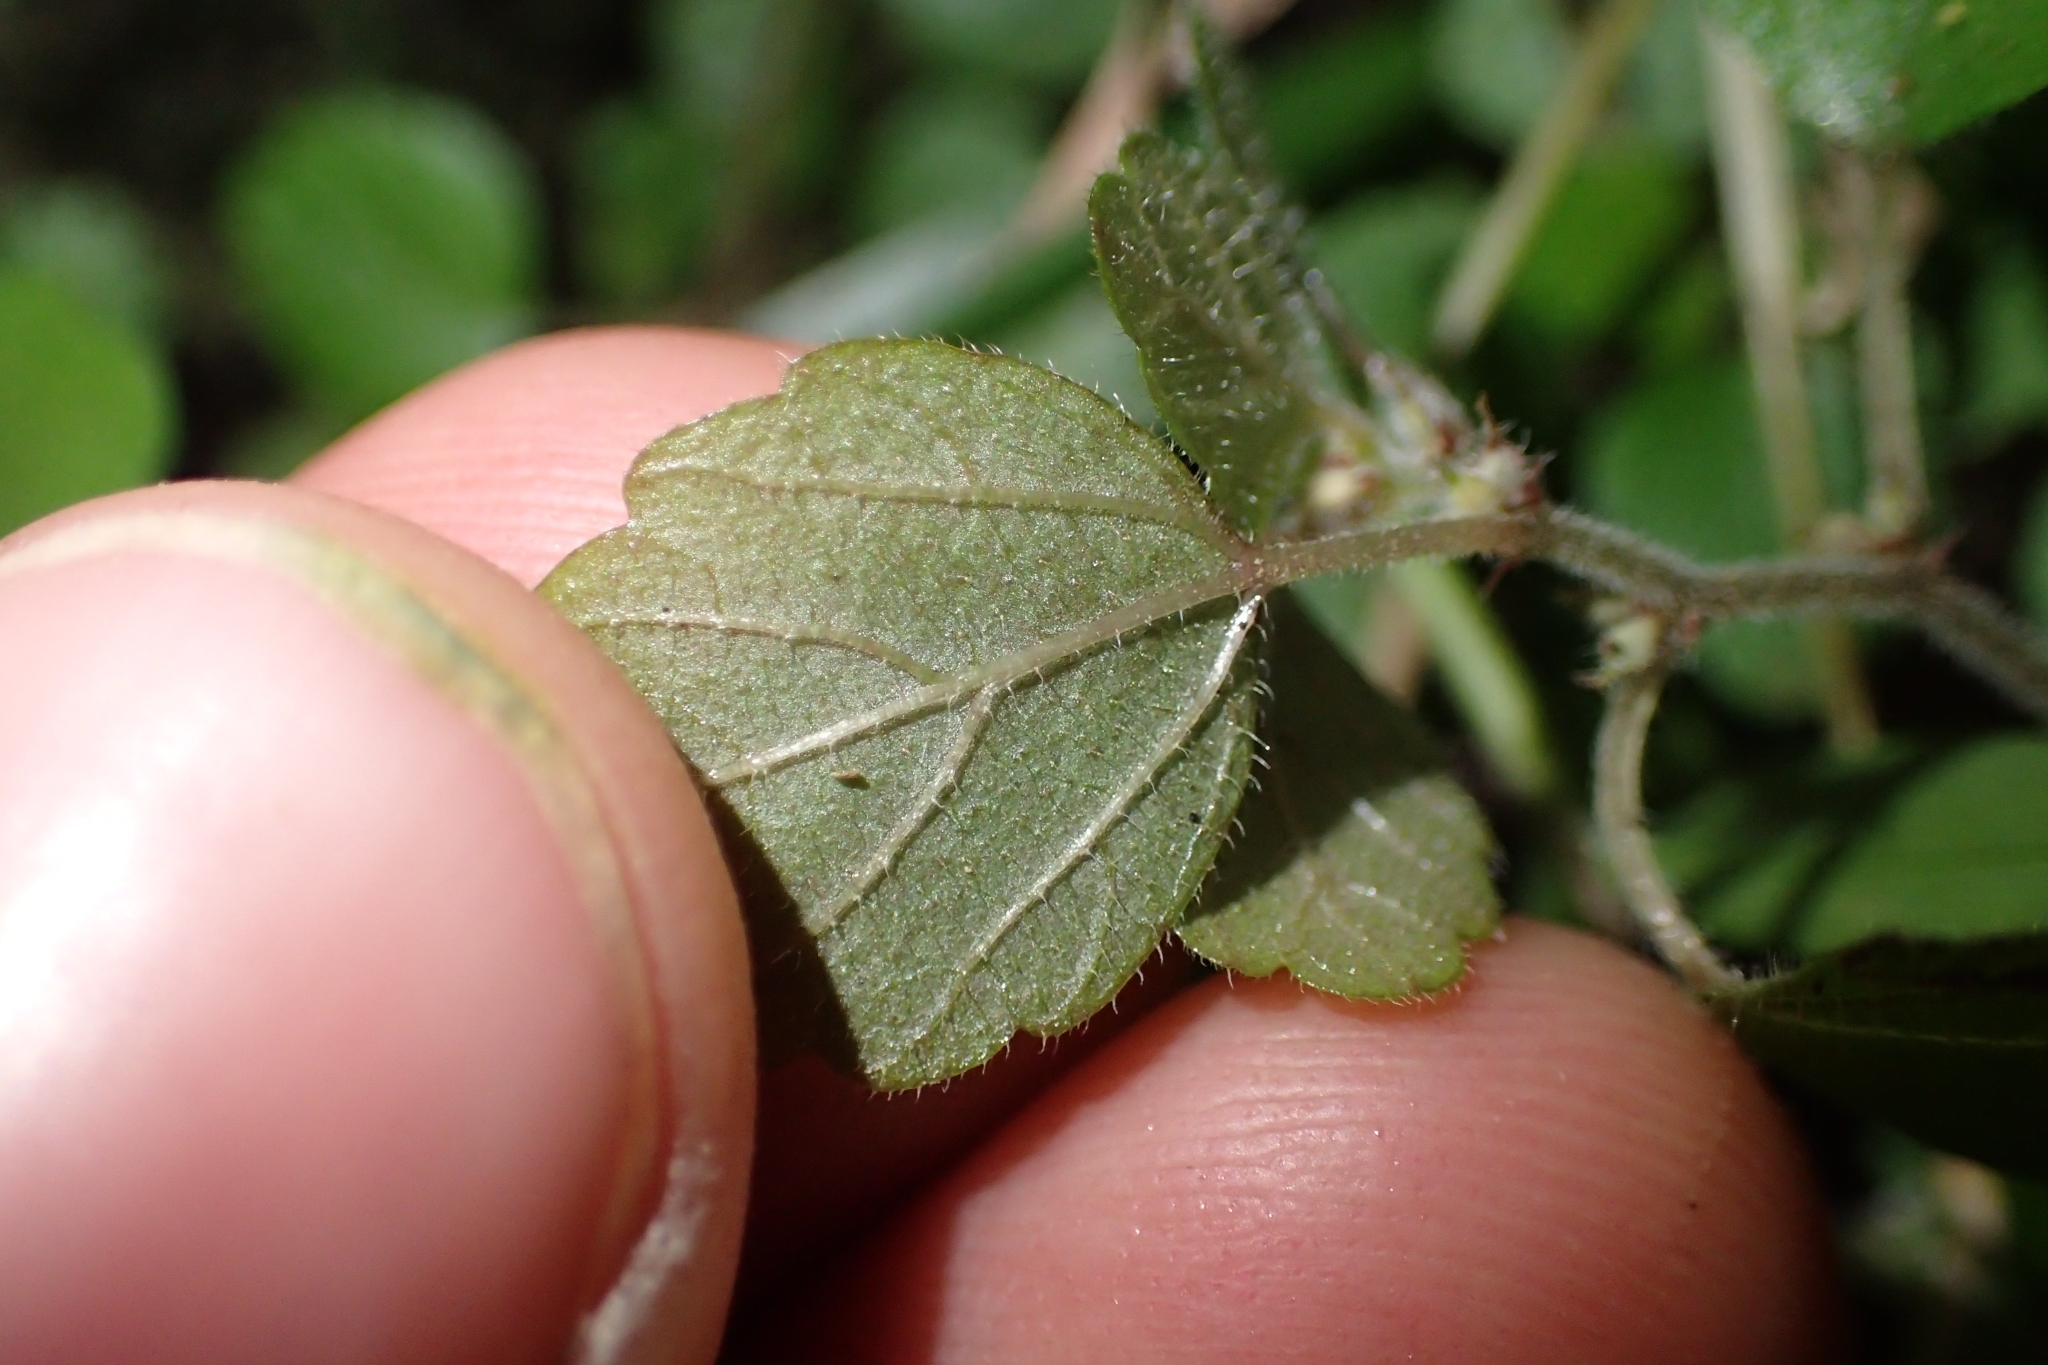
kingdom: Plantae
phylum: Tracheophyta
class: Magnoliopsida
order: Rosales
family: Urticaceae
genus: Australina
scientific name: Australina pusilla
